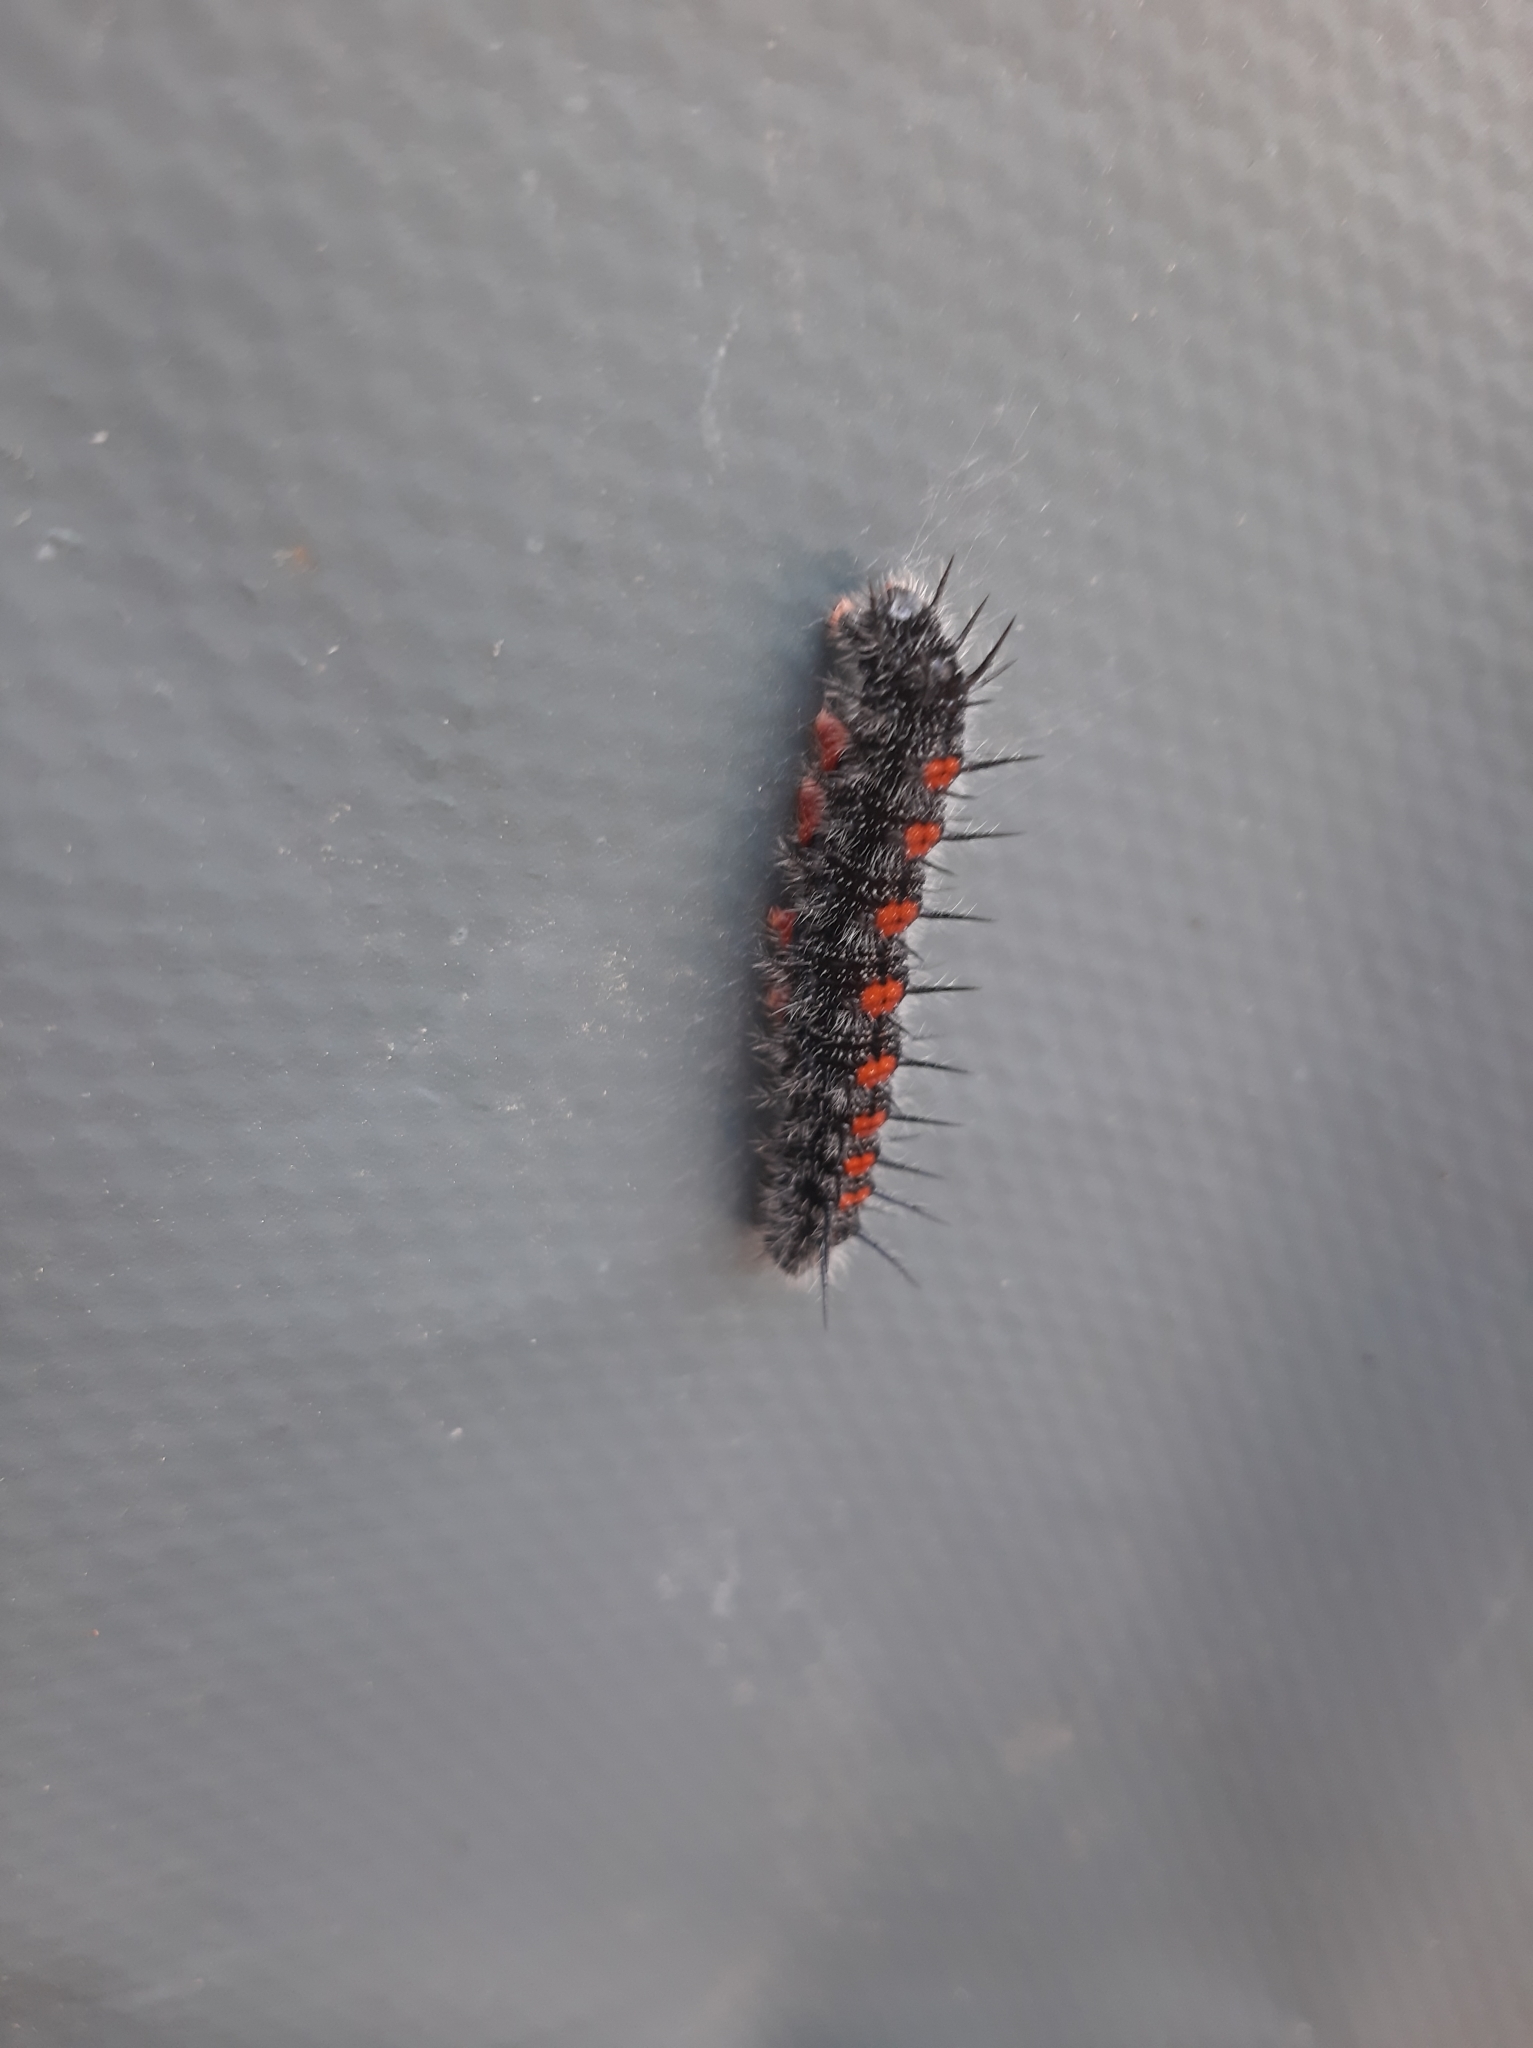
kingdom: Animalia
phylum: Arthropoda
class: Insecta
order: Lepidoptera
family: Nymphalidae
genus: Nymphalis
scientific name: Nymphalis antiopa
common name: Camberwell beauty
